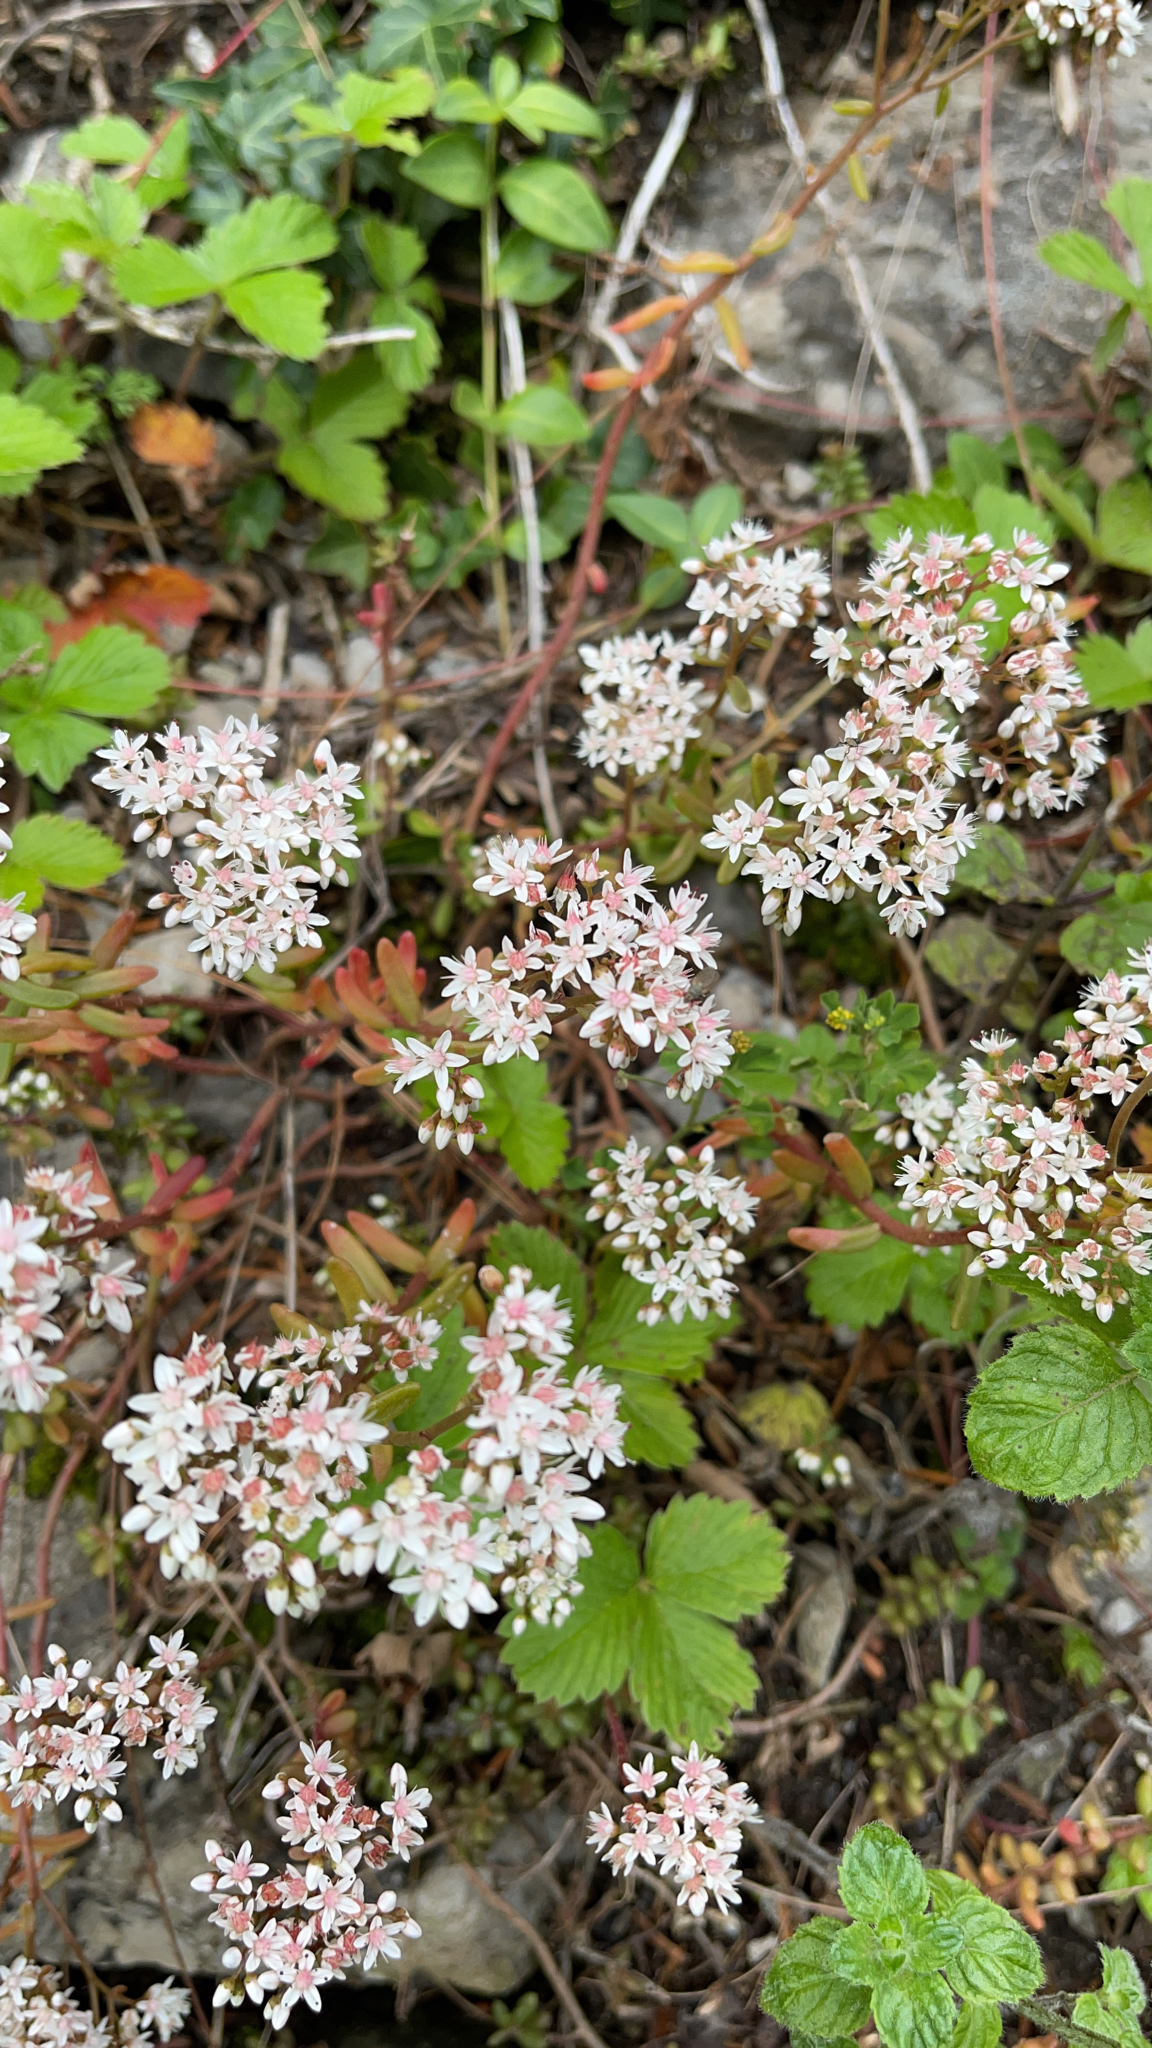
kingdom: Plantae
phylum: Tracheophyta
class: Magnoliopsida
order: Saxifragales
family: Crassulaceae
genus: Sedum
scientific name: Sedum album
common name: White stonecrop
